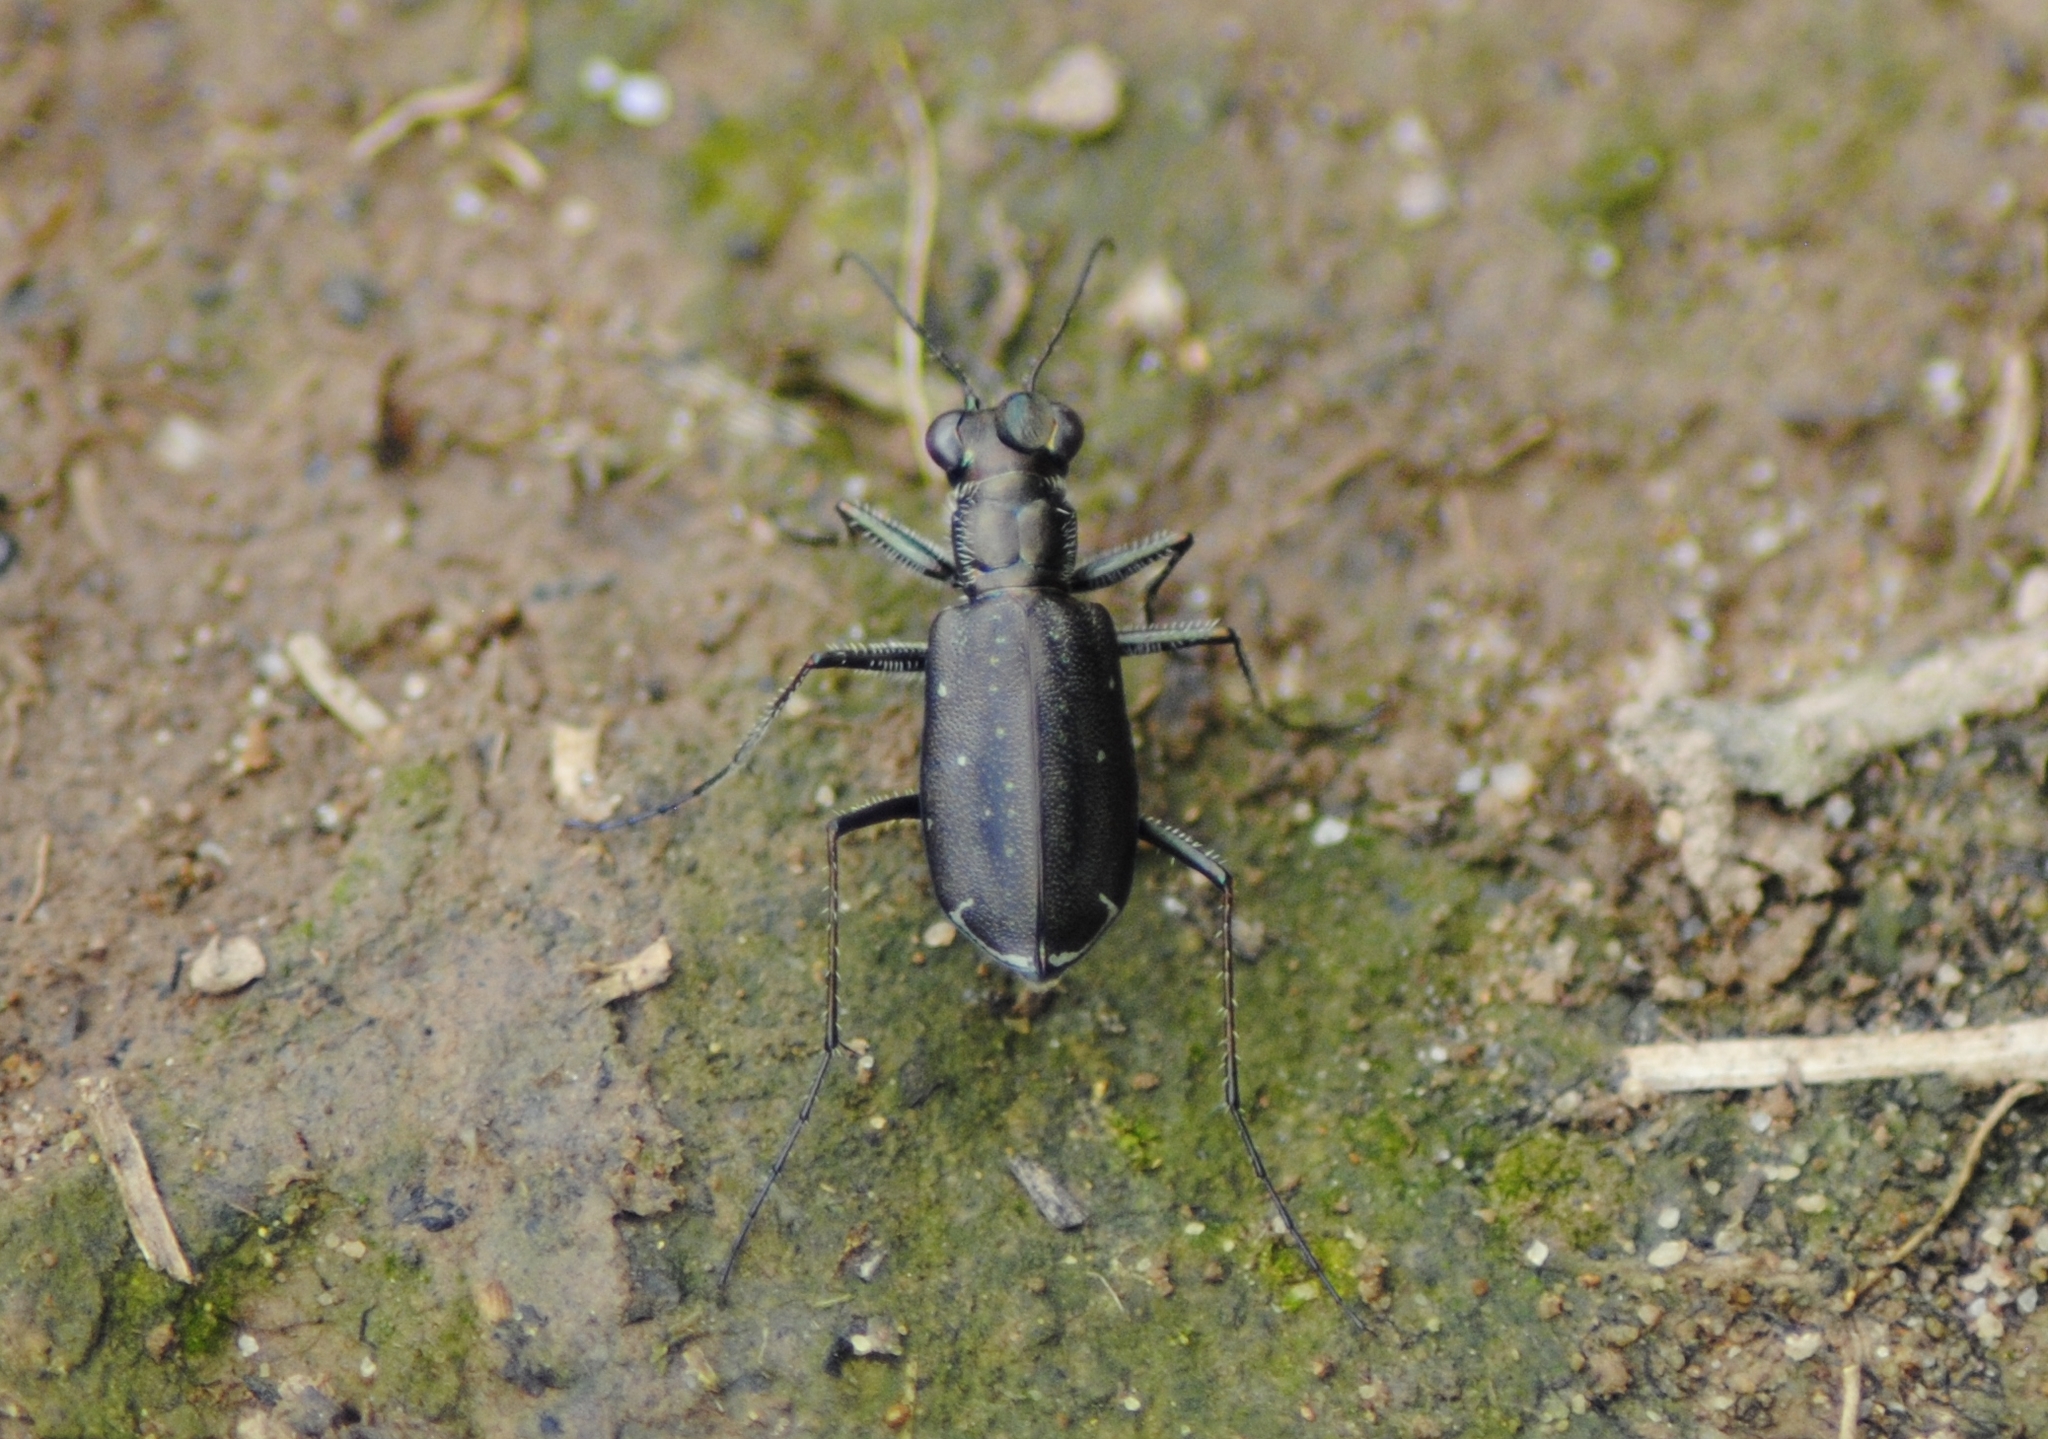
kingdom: Animalia
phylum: Arthropoda
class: Insecta
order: Coleoptera
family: Carabidae
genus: Cicindela
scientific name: Cicindela punctulata
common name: Punctured tiger beetle
